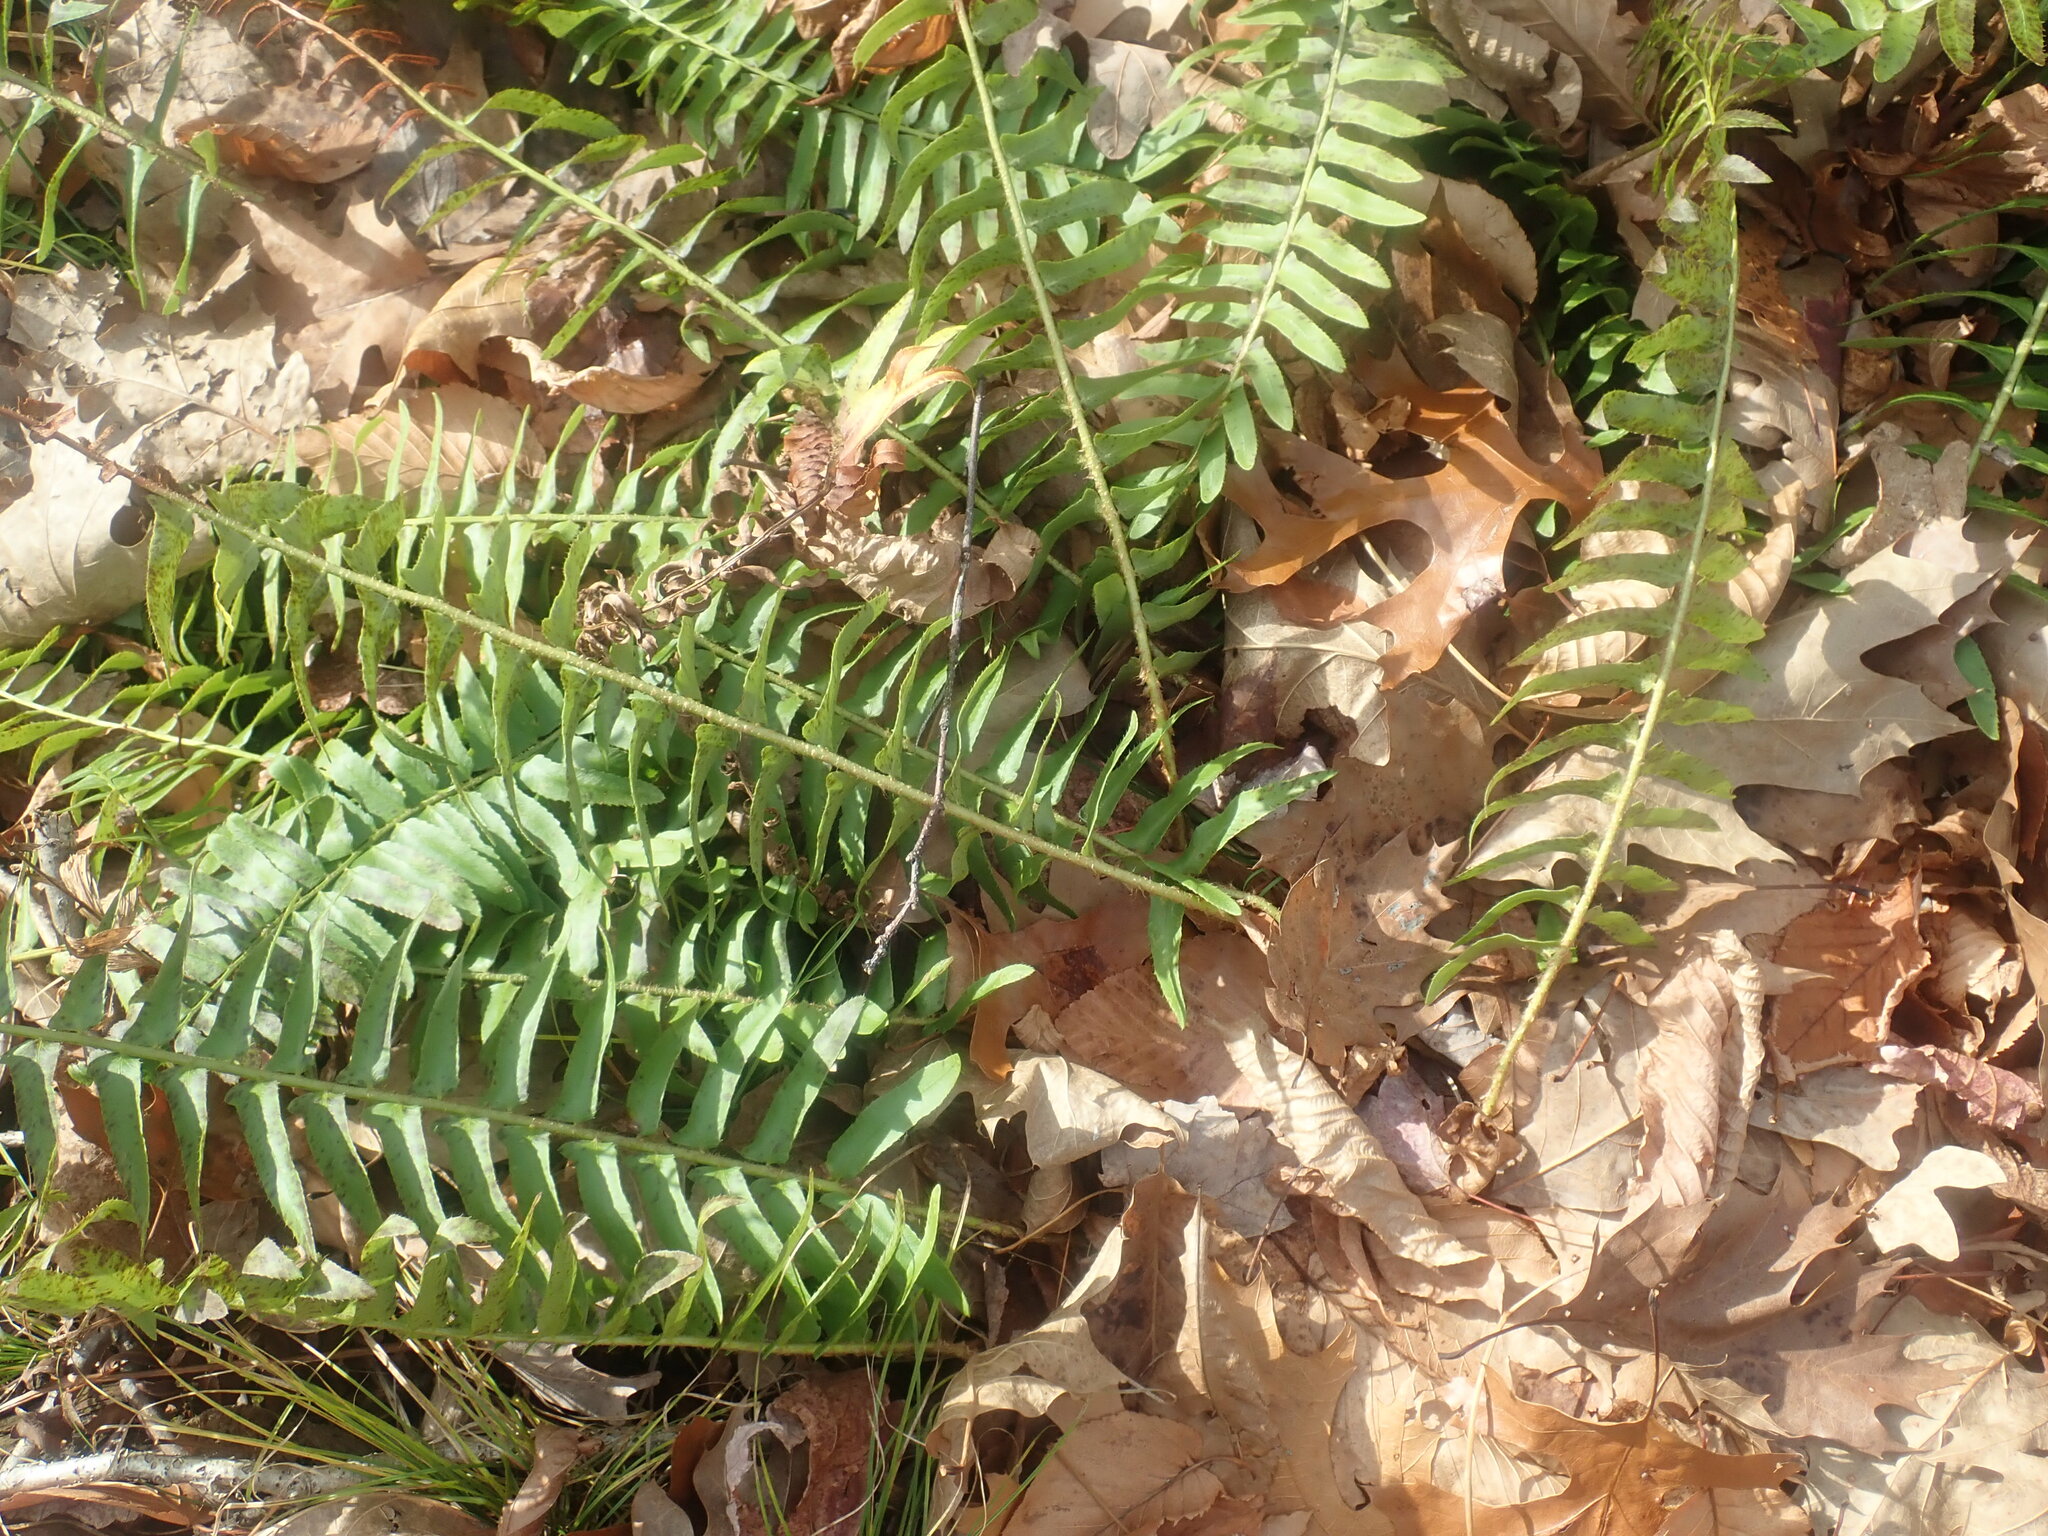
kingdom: Plantae
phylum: Tracheophyta
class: Polypodiopsida
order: Polypodiales
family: Dryopteridaceae
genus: Polystichum
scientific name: Polystichum acrostichoides
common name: Christmas fern
